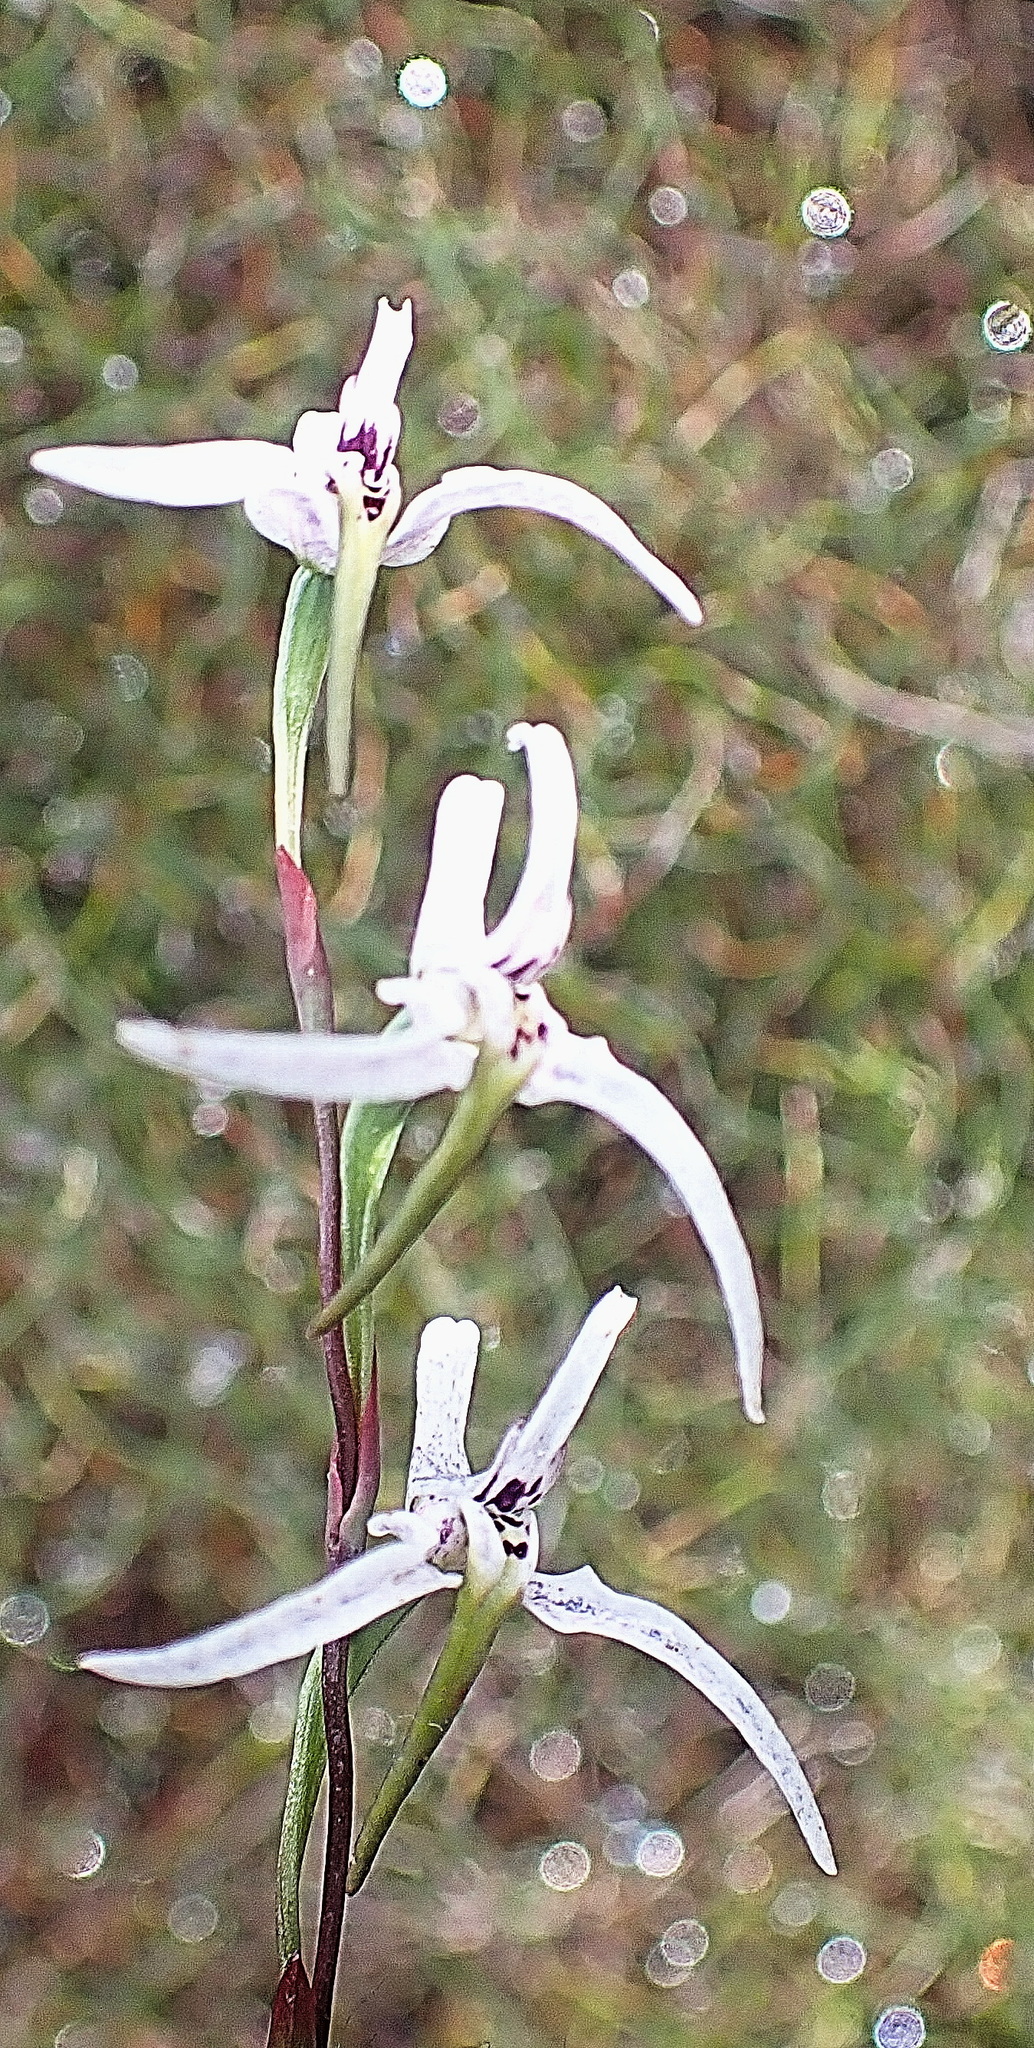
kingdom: Plantae
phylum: Tracheophyta
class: Liliopsida
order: Asparagales
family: Orchidaceae
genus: Disa
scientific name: Disa biflora
